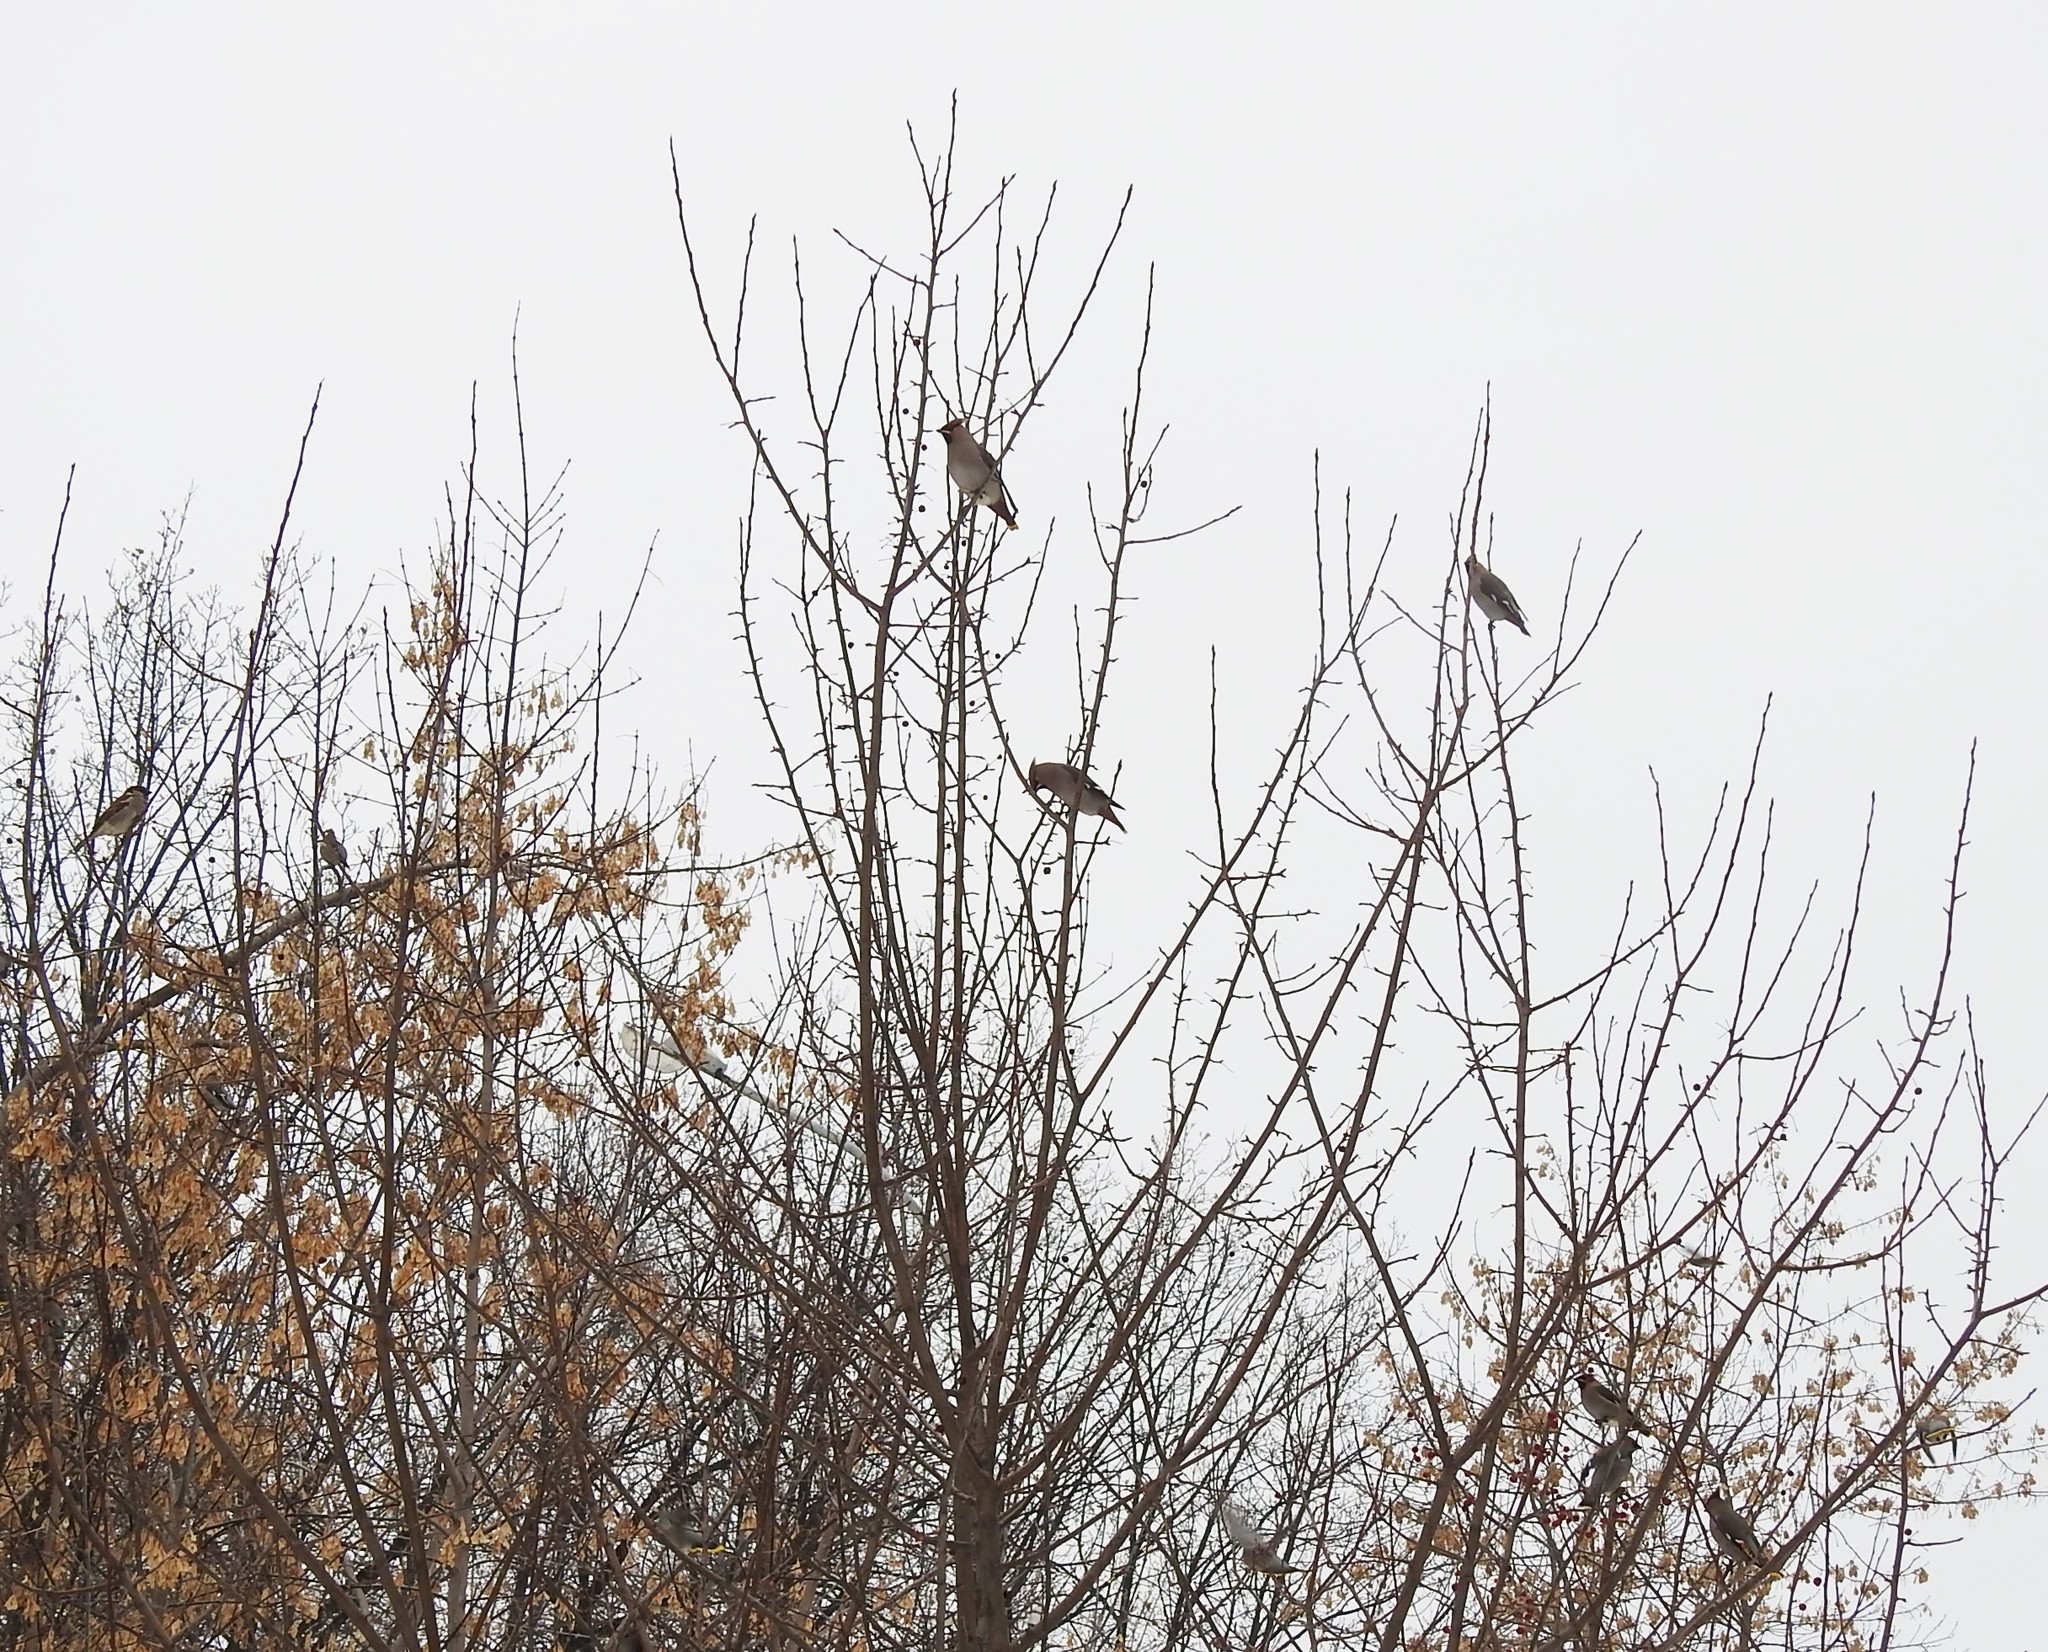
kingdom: Animalia
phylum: Chordata
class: Aves
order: Passeriformes
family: Bombycillidae
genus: Bombycilla
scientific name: Bombycilla garrulus
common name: Bohemian waxwing
